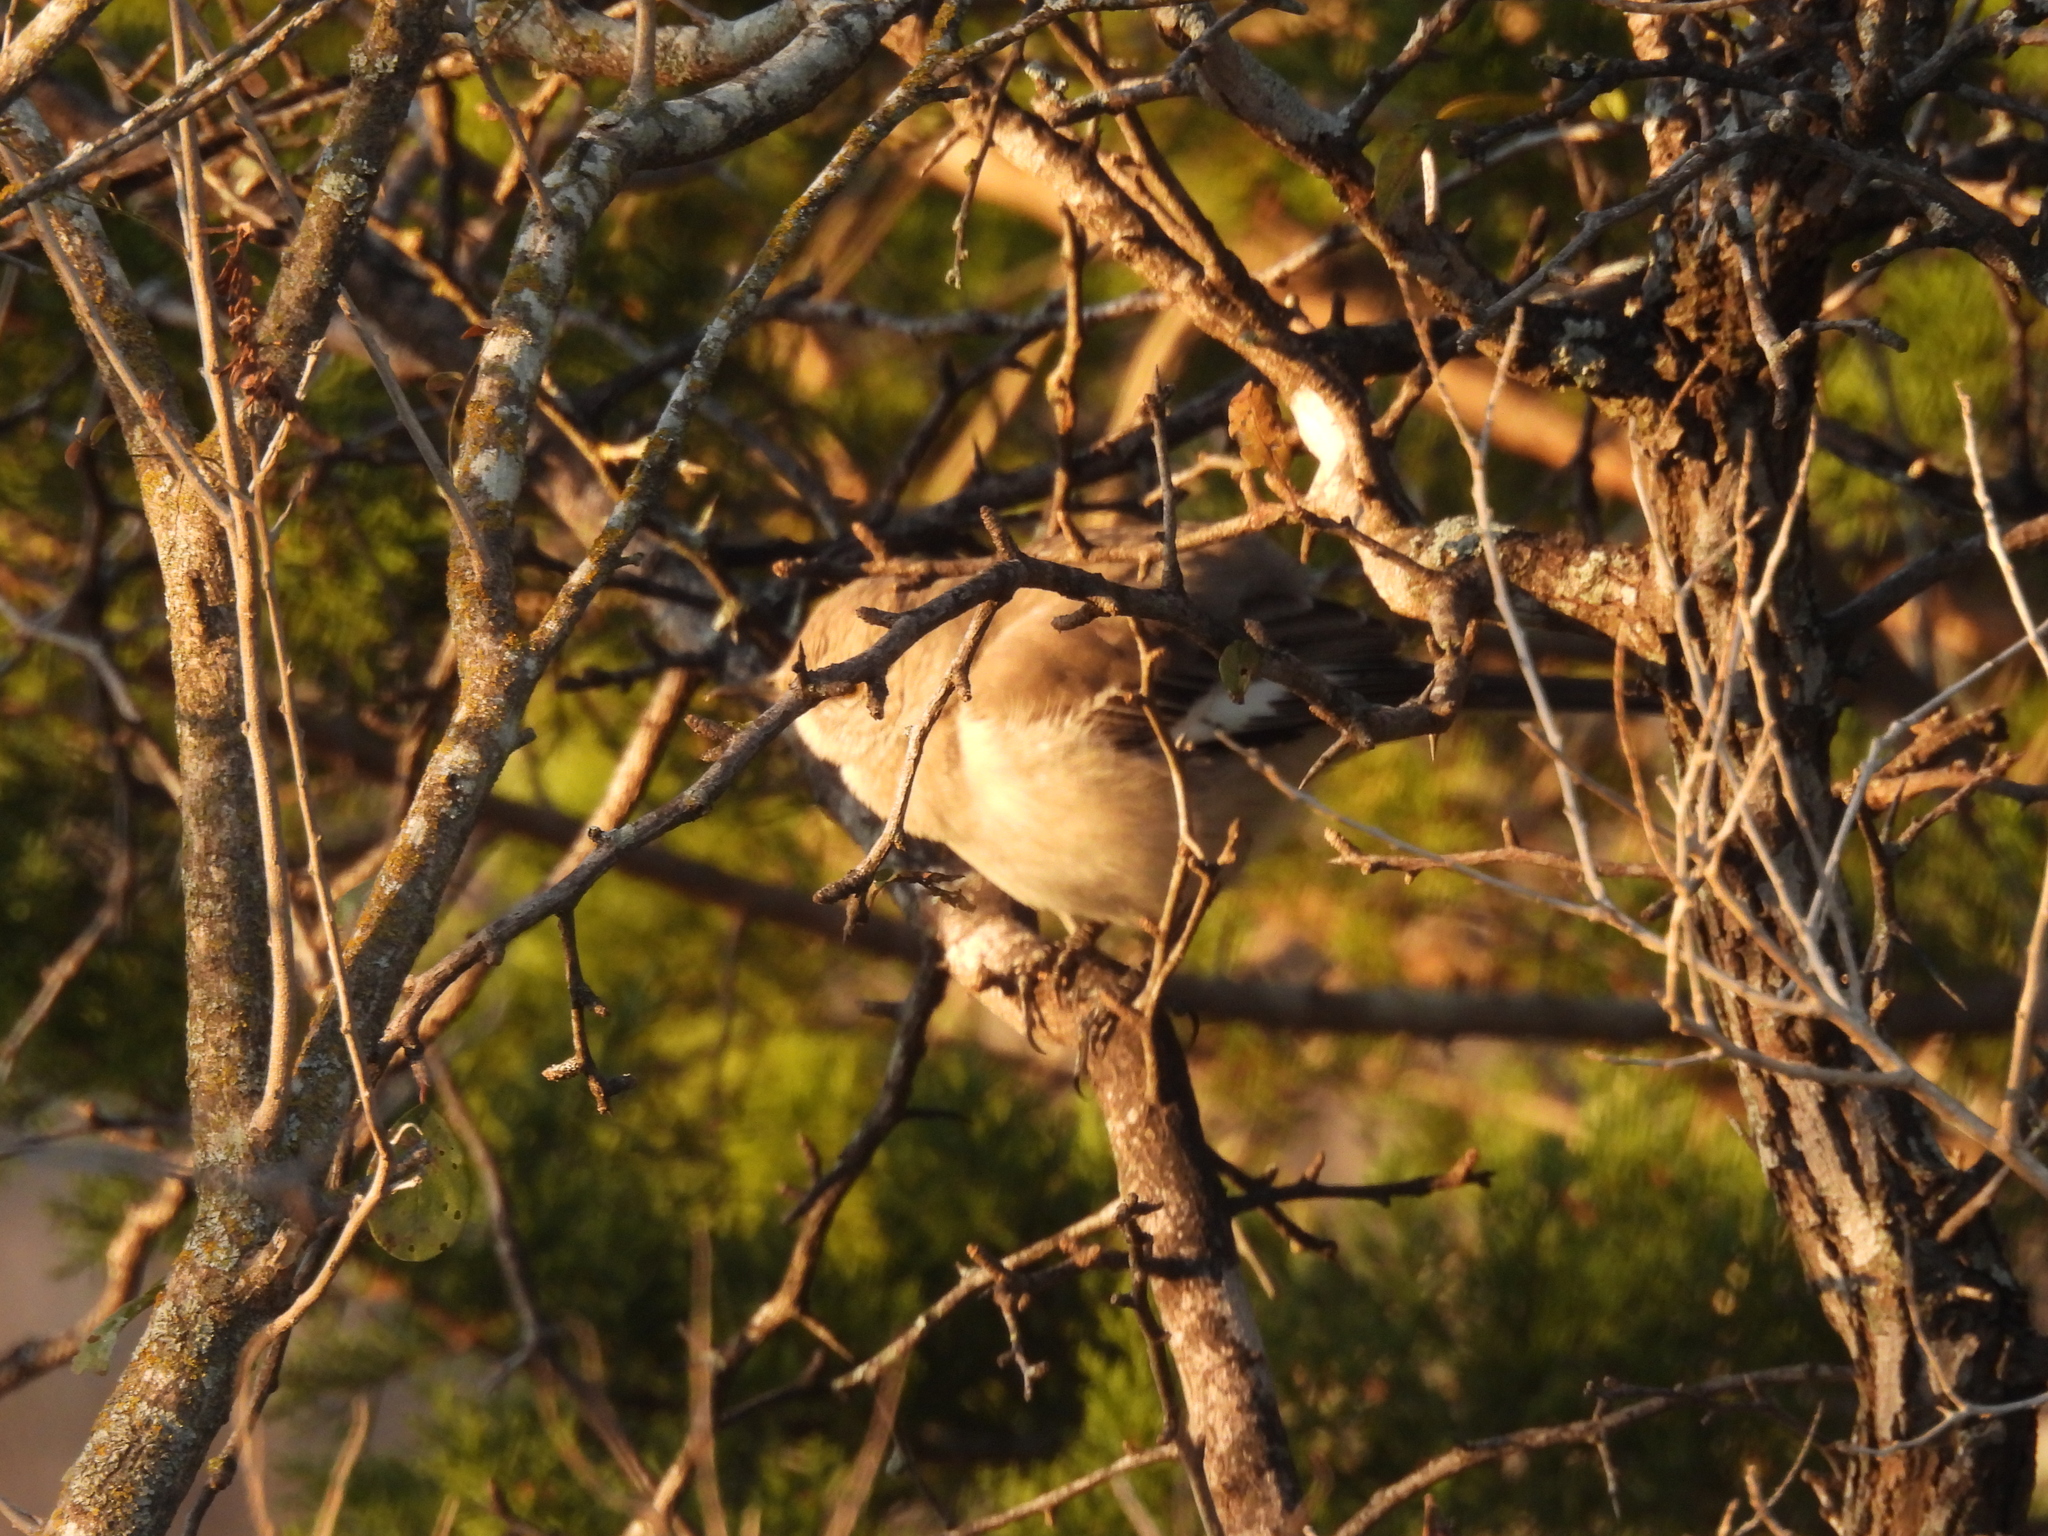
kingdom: Animalia
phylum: Chordata
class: Aves
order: Passeriformes
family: Mimidae
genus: Mimus
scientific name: Mimus polyglottos
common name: Northern mockingbird
